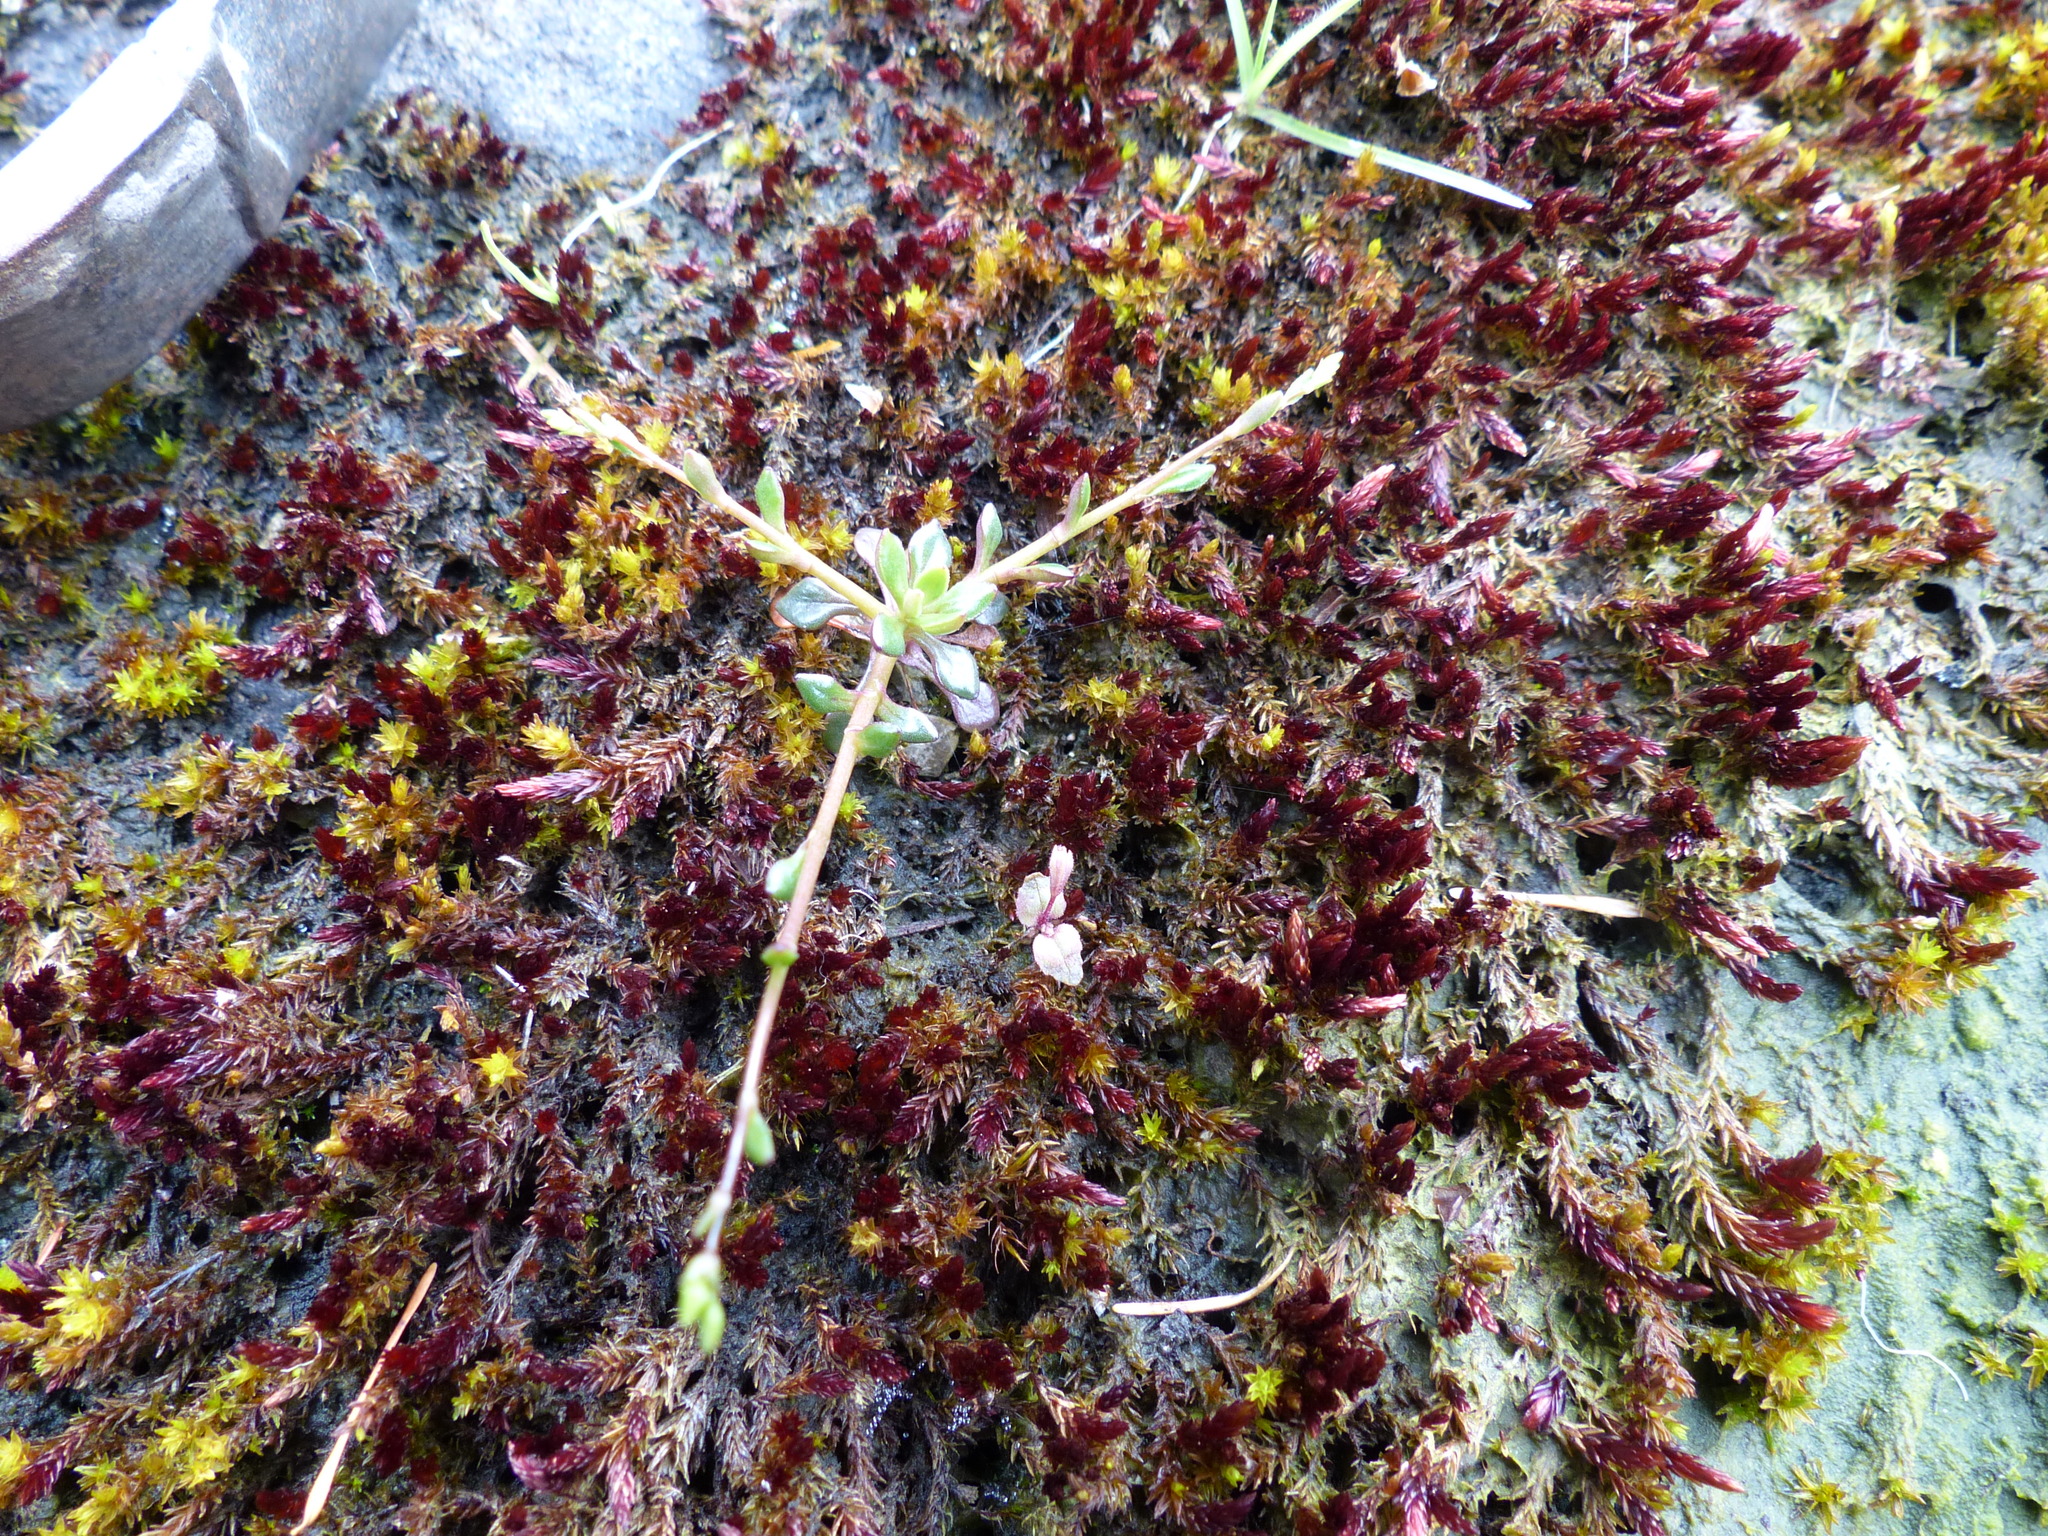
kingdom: Plantae
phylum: Tracheophyta
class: Magnoliopsida
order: Caryophyllales
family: Montiaceae
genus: Montia
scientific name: Montia parvifolia
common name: Small-leaved blinks
